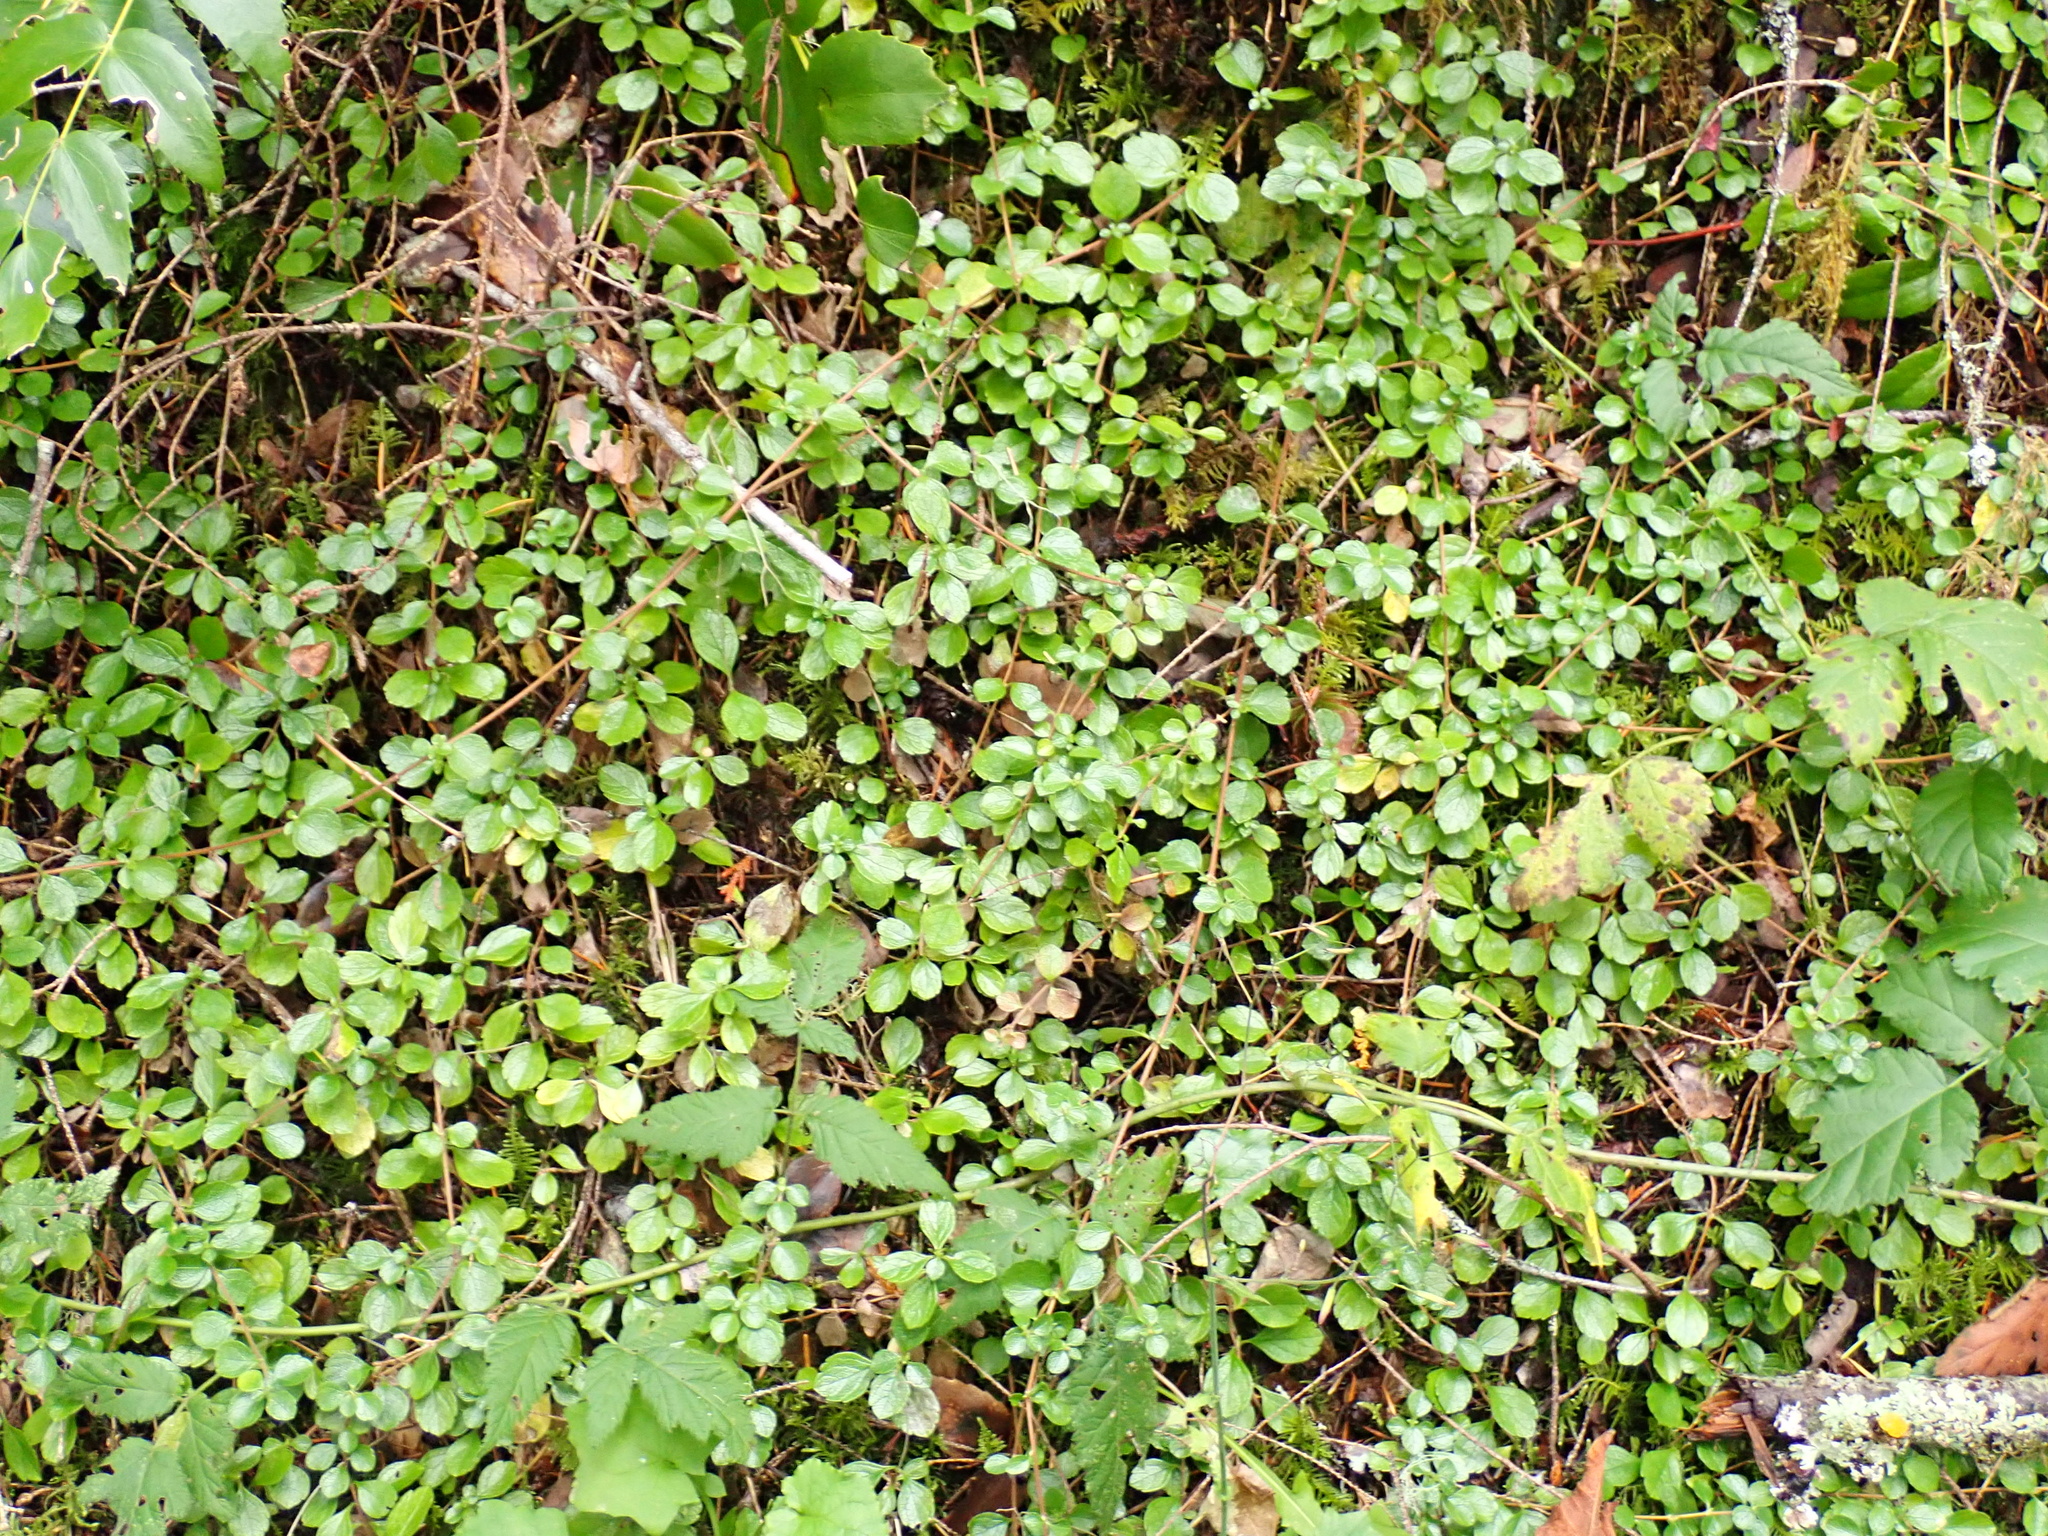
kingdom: Plantae
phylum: Tracheophyta
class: Magnoliopsida
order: Dipsacales
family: Caprifoliaceae
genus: Linnaea
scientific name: Linnaea borealis
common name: Twinflower
